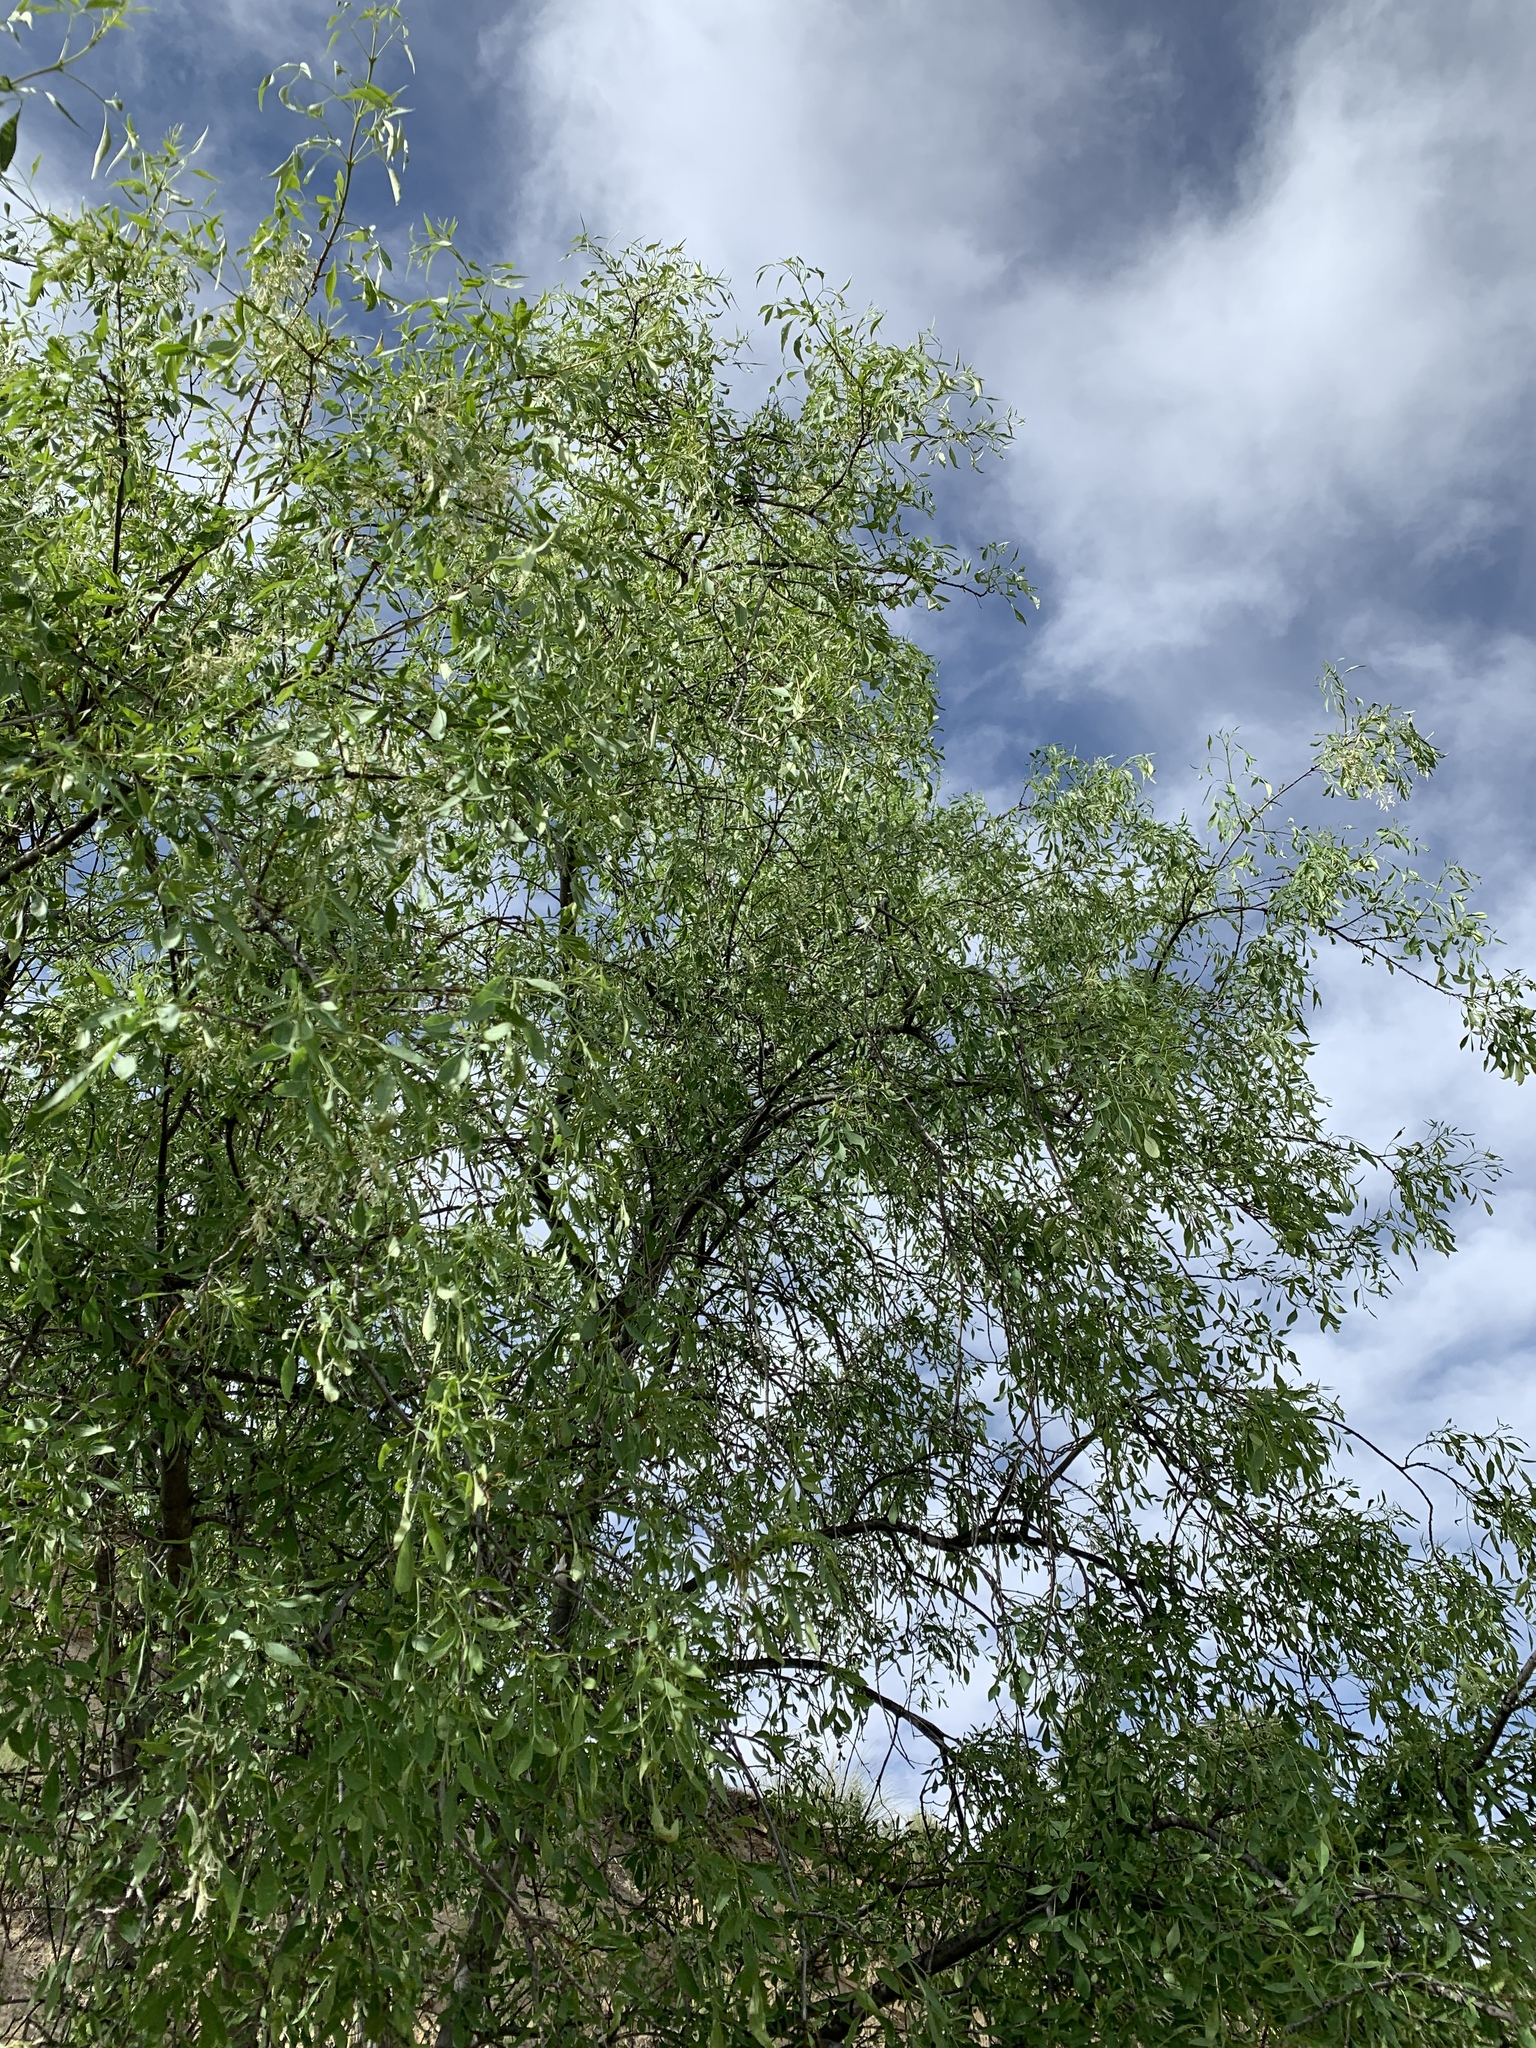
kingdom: Plantae
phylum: Tracheophyta
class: Magnoliopsida
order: Lamiales
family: Oleaceae
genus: Fraxinus
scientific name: Fraxinus cuspidata
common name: Fragrant ash
